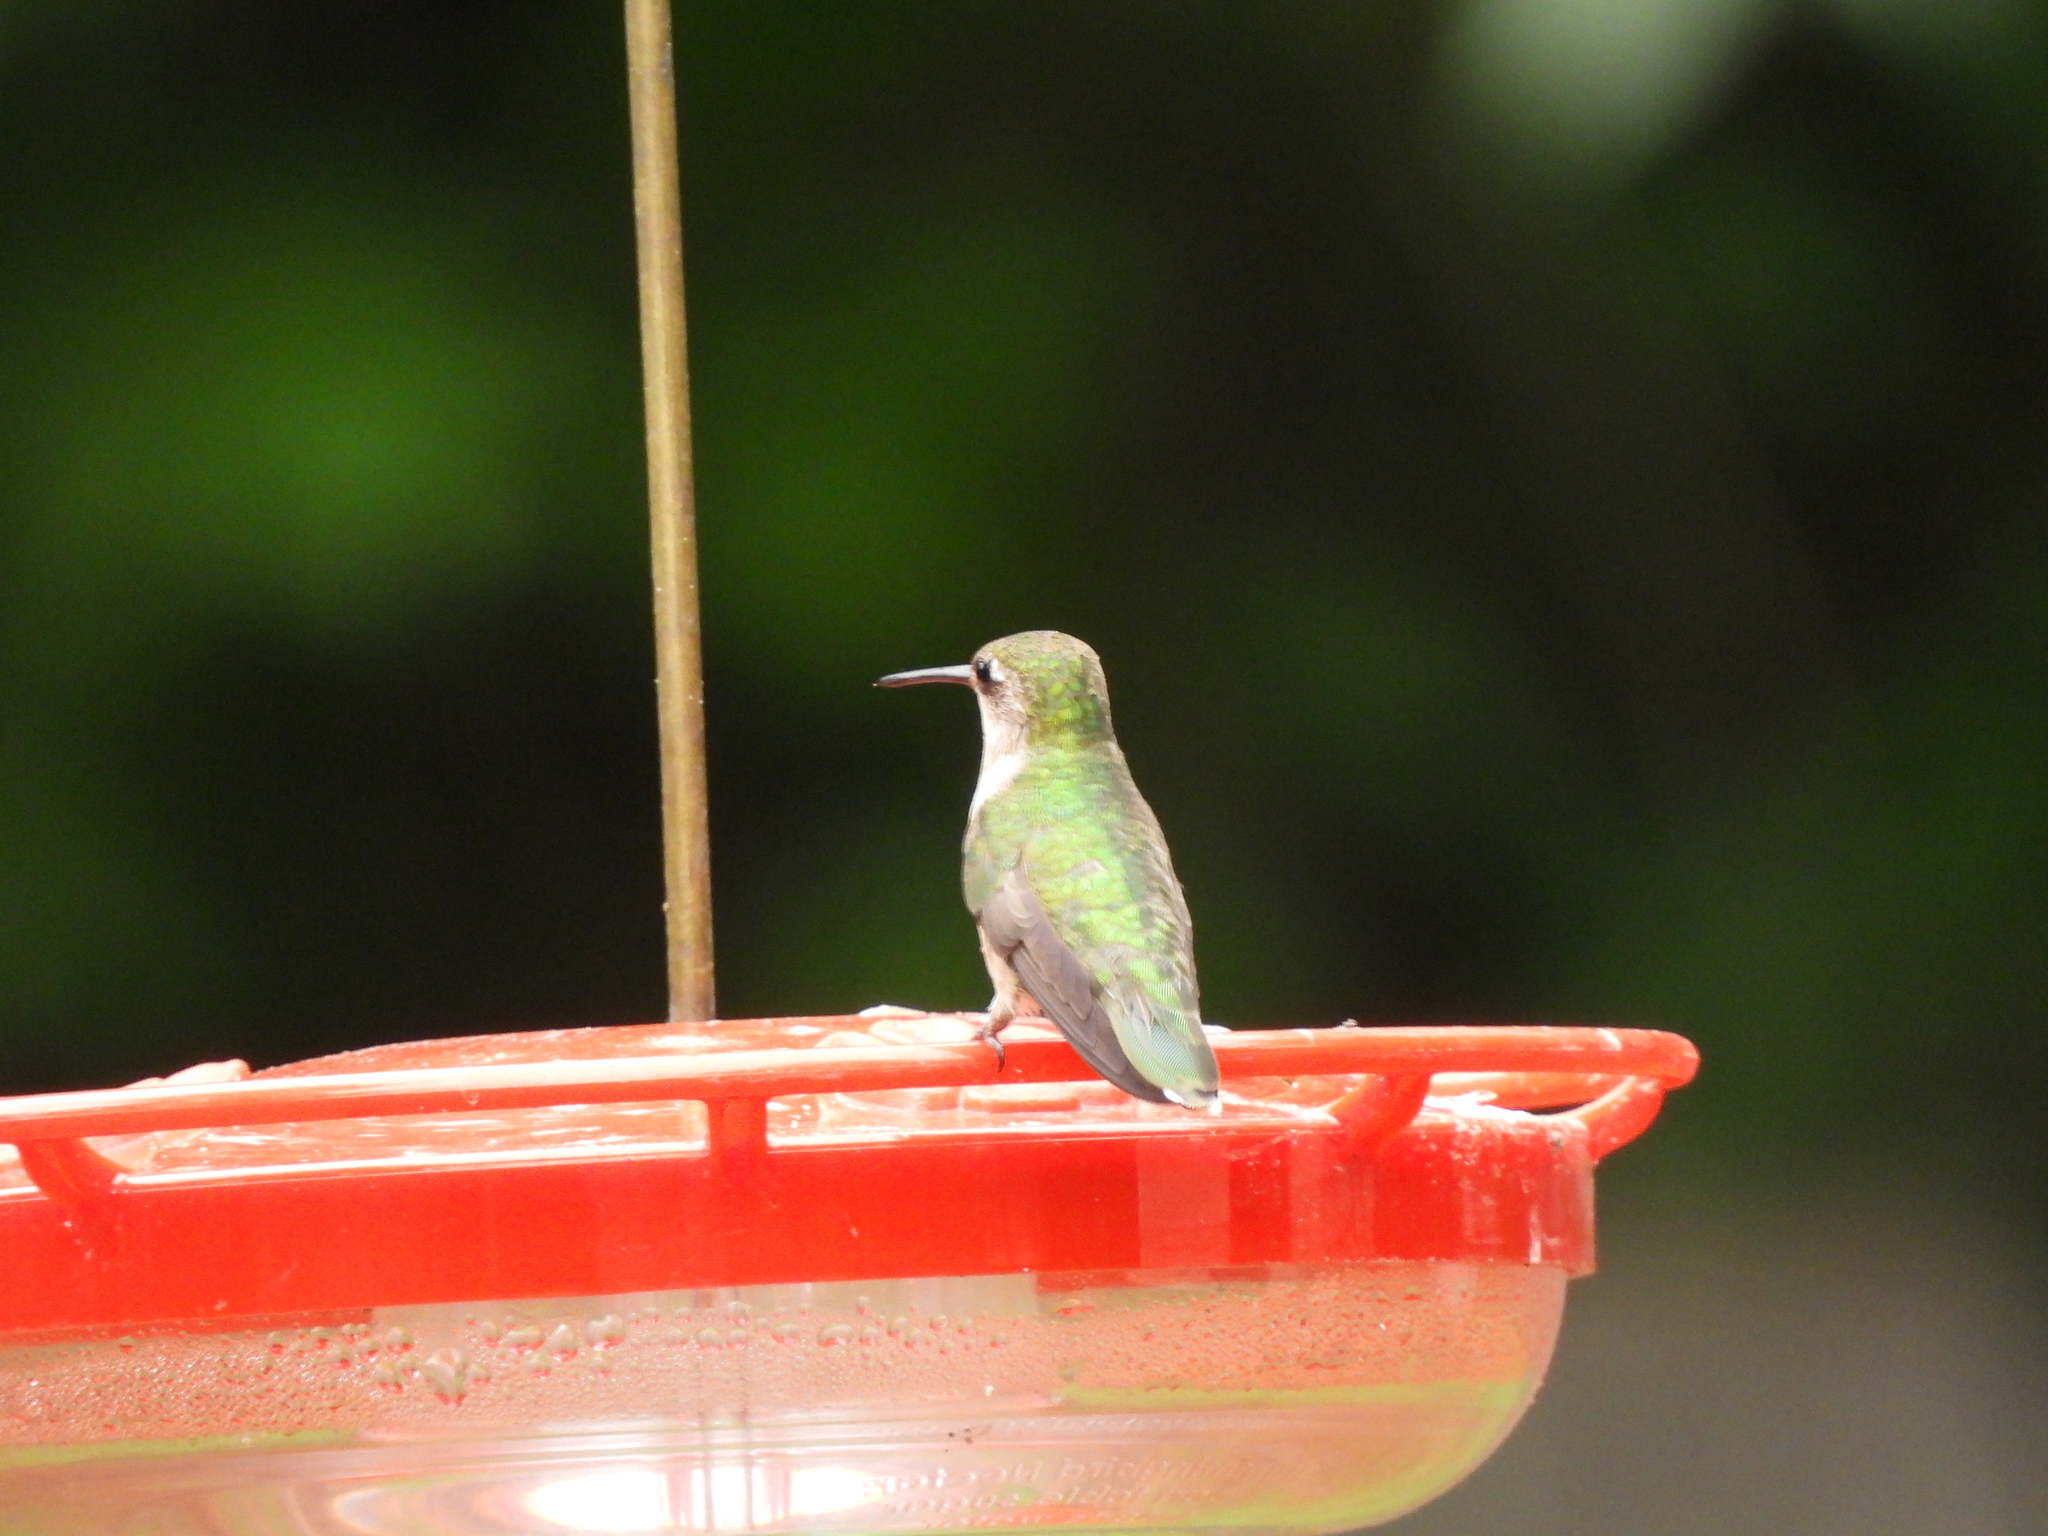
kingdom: Animalia
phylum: Chordata
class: Aves
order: Apodiformes
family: Trochilidae
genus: Archilochus
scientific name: Archilochus colubris
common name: Ruby-throated hummingbird
